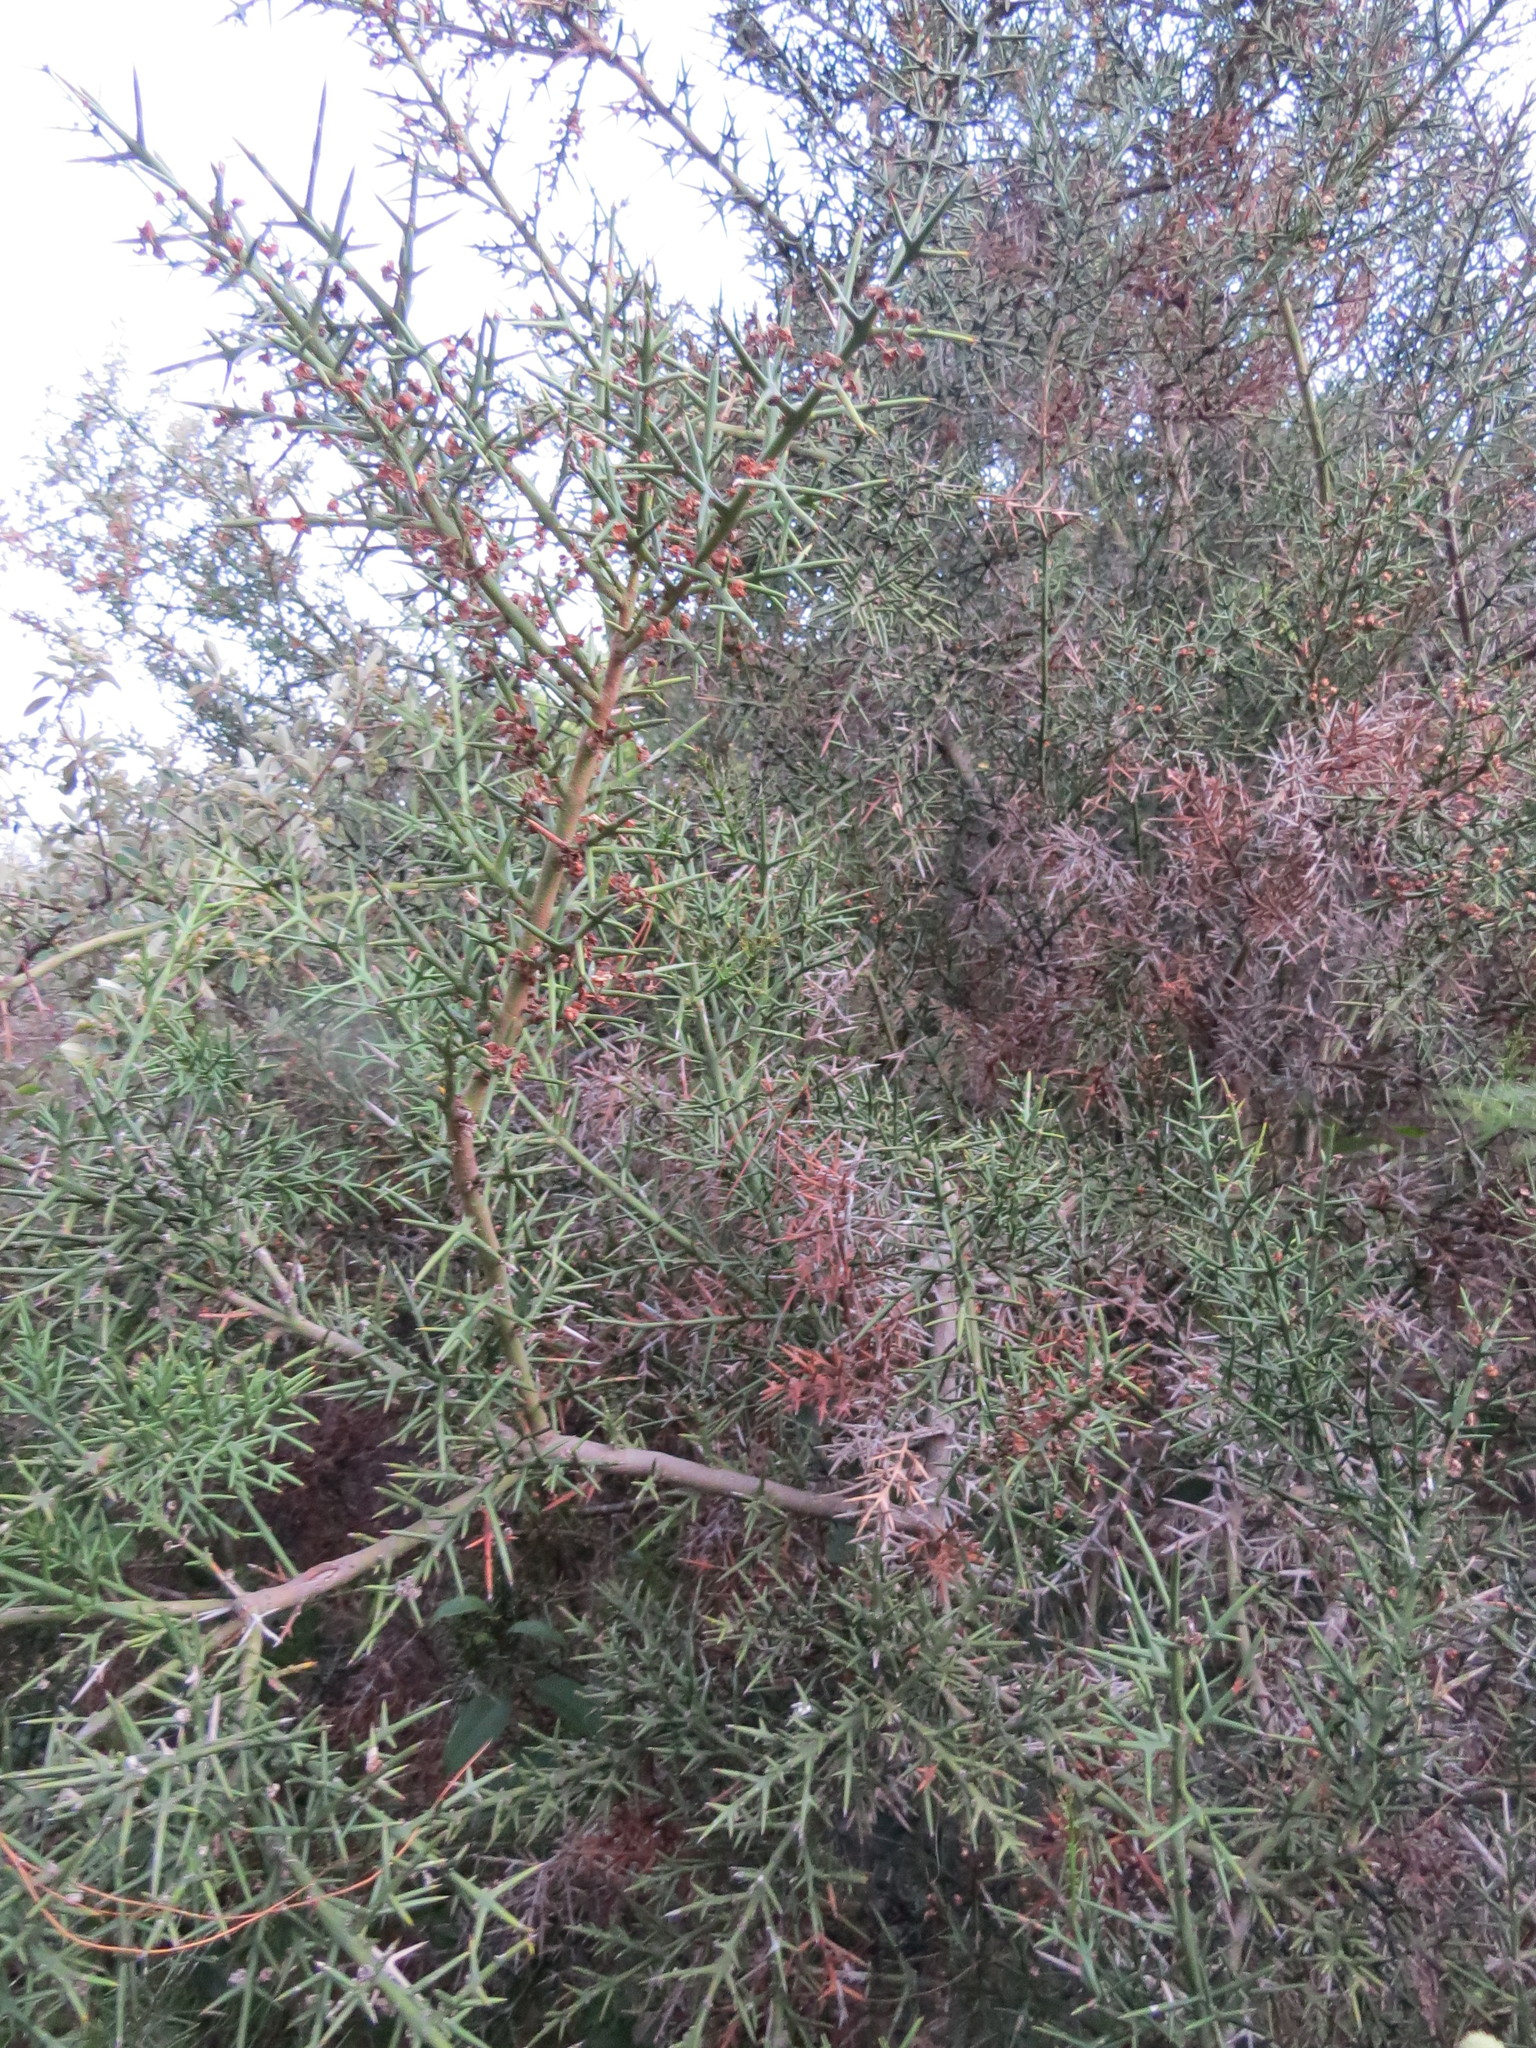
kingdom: Plantae
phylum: Tracheophyta
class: Magnoliopsida
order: Rosales
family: Rhamnaceae
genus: Colletia
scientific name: Colletia spinosissima
